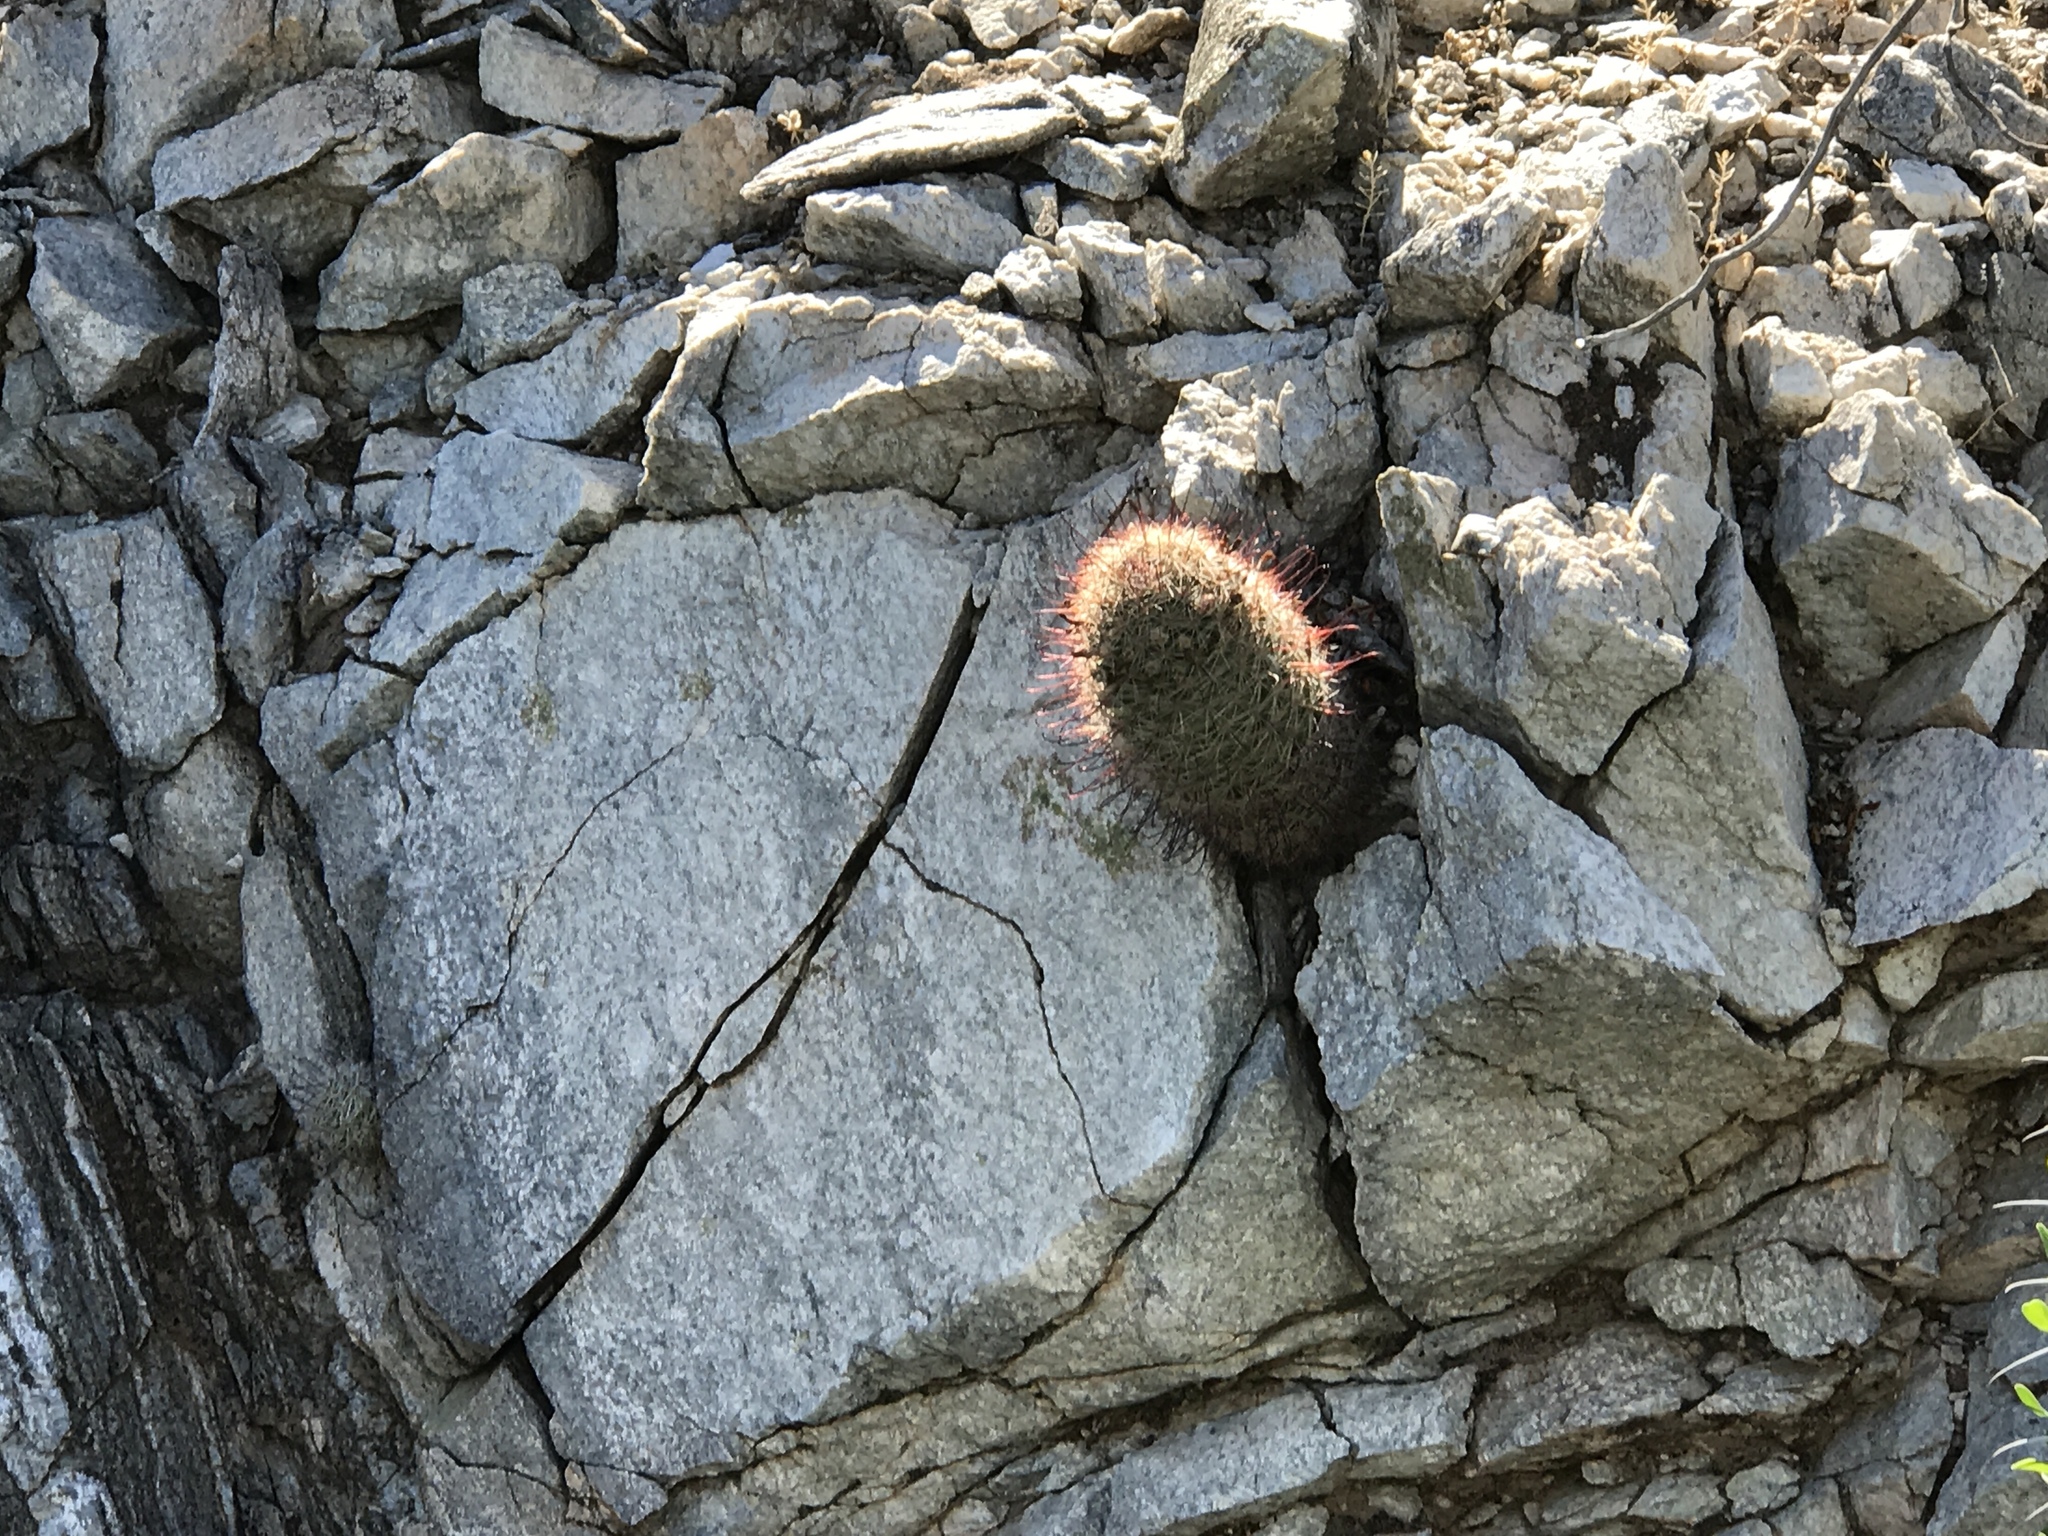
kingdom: Plantae
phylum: Tracheophyta
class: Magnoliopsida
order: Caryophyllales
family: Cactaceae
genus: Cochemiea
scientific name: Cochemiea grahamii
